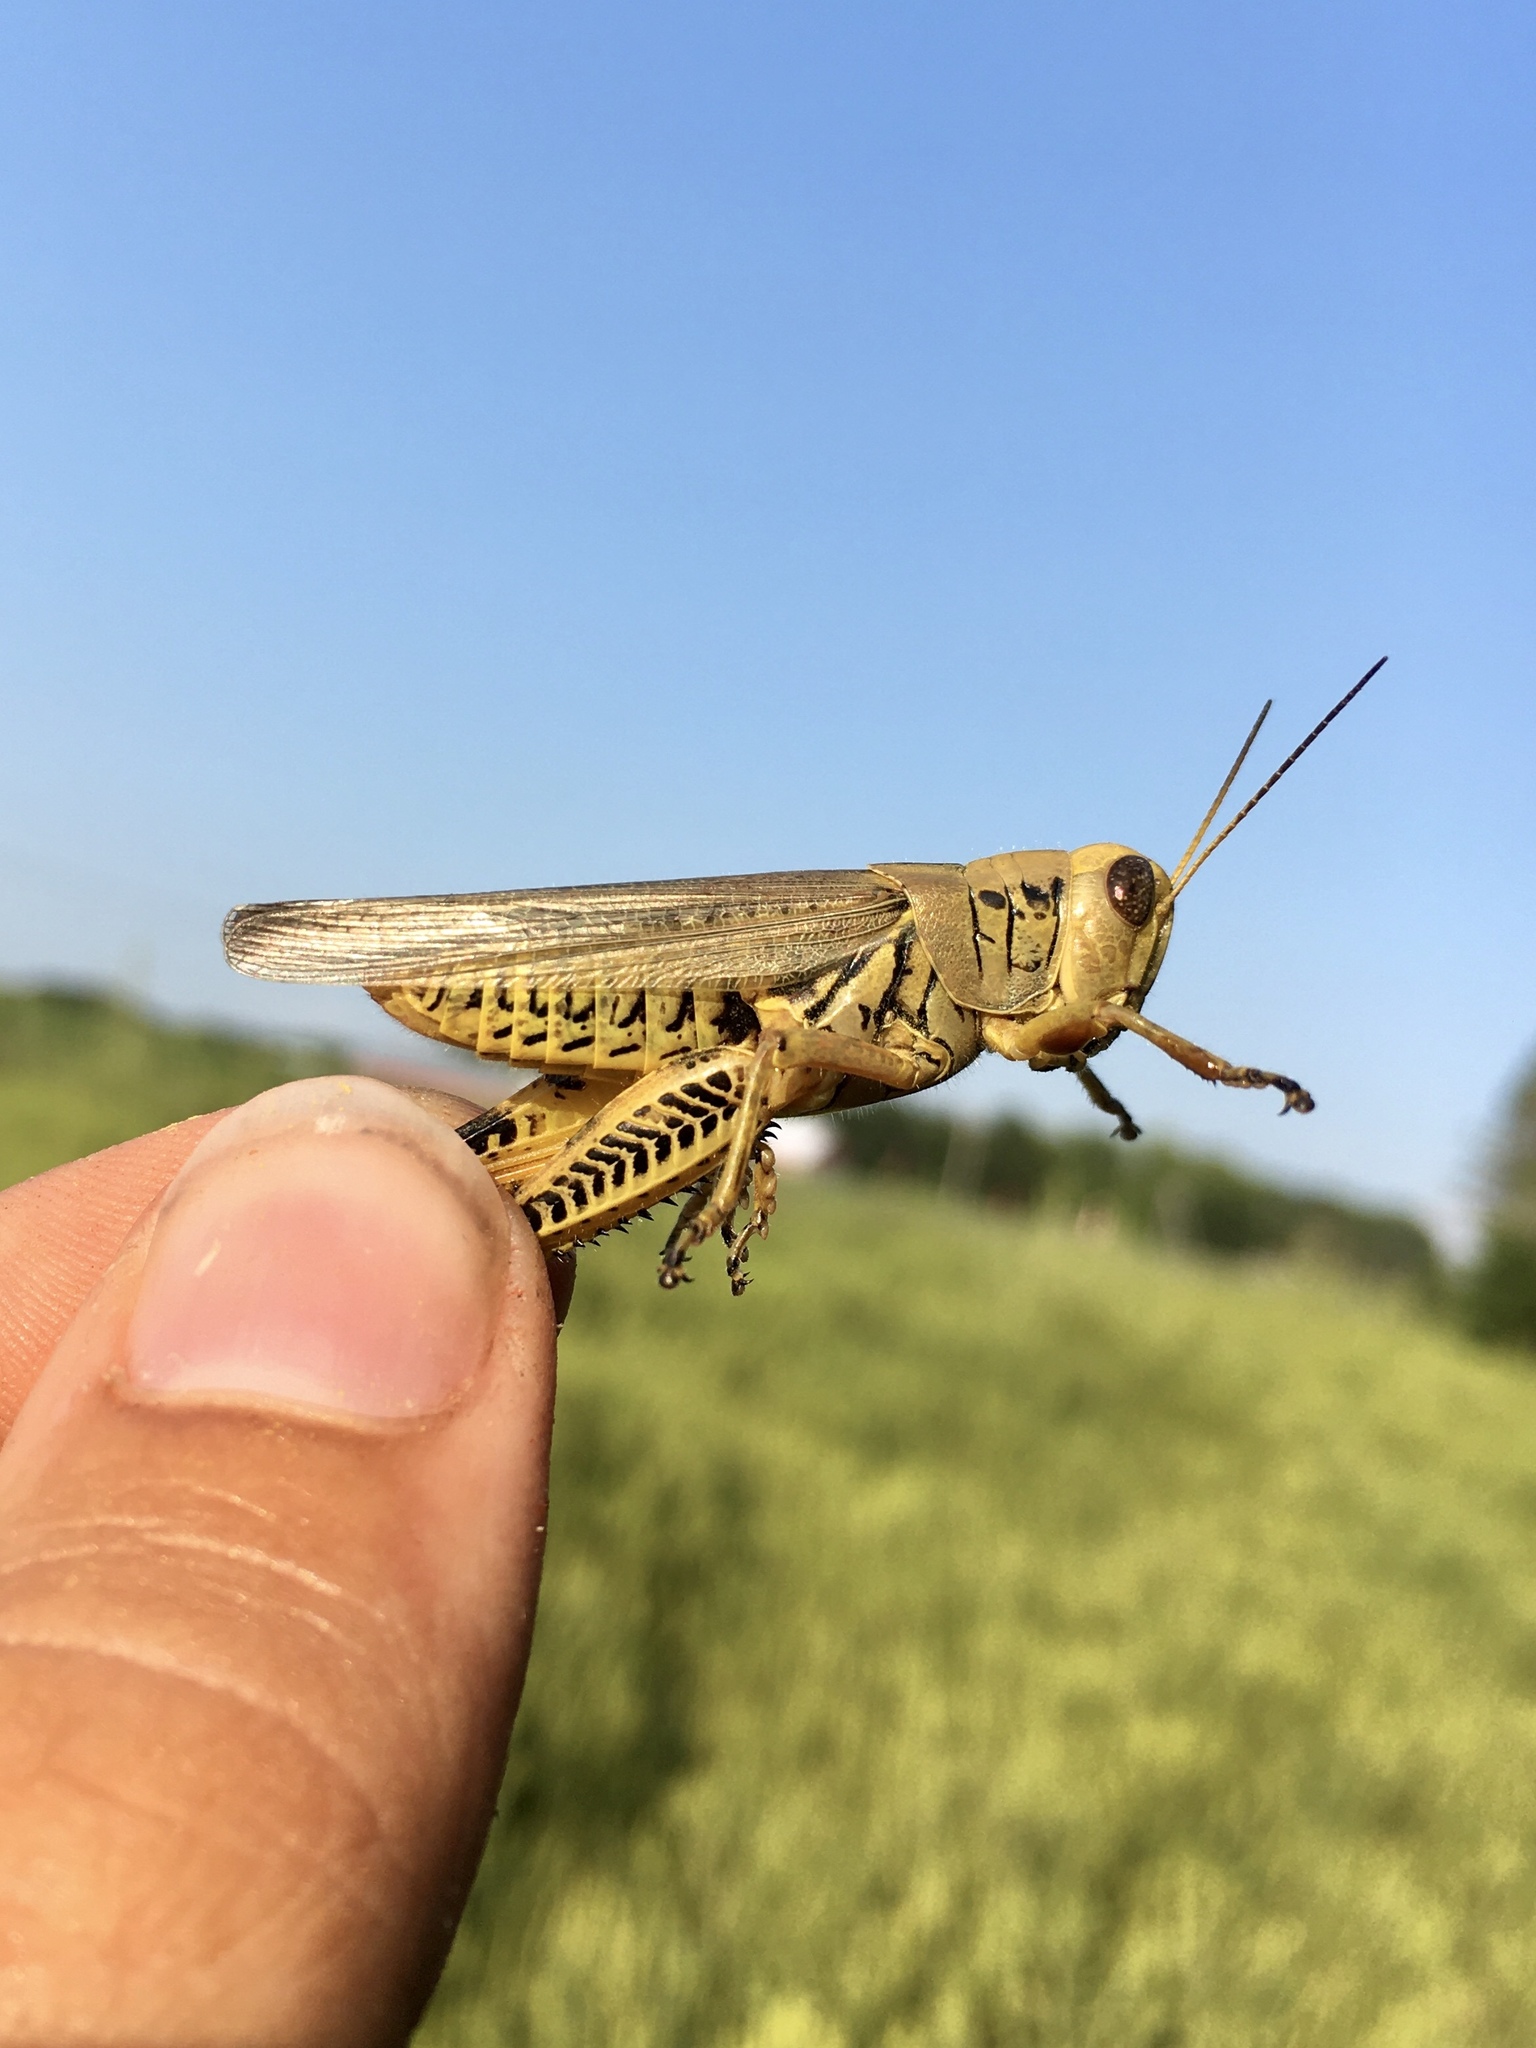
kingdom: Animalia
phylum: Arthropoda
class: Insecta
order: Orthoptera
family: Acrididae
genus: Melanoplus
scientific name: Melanoplus differentialis
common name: Differential grasshopper
